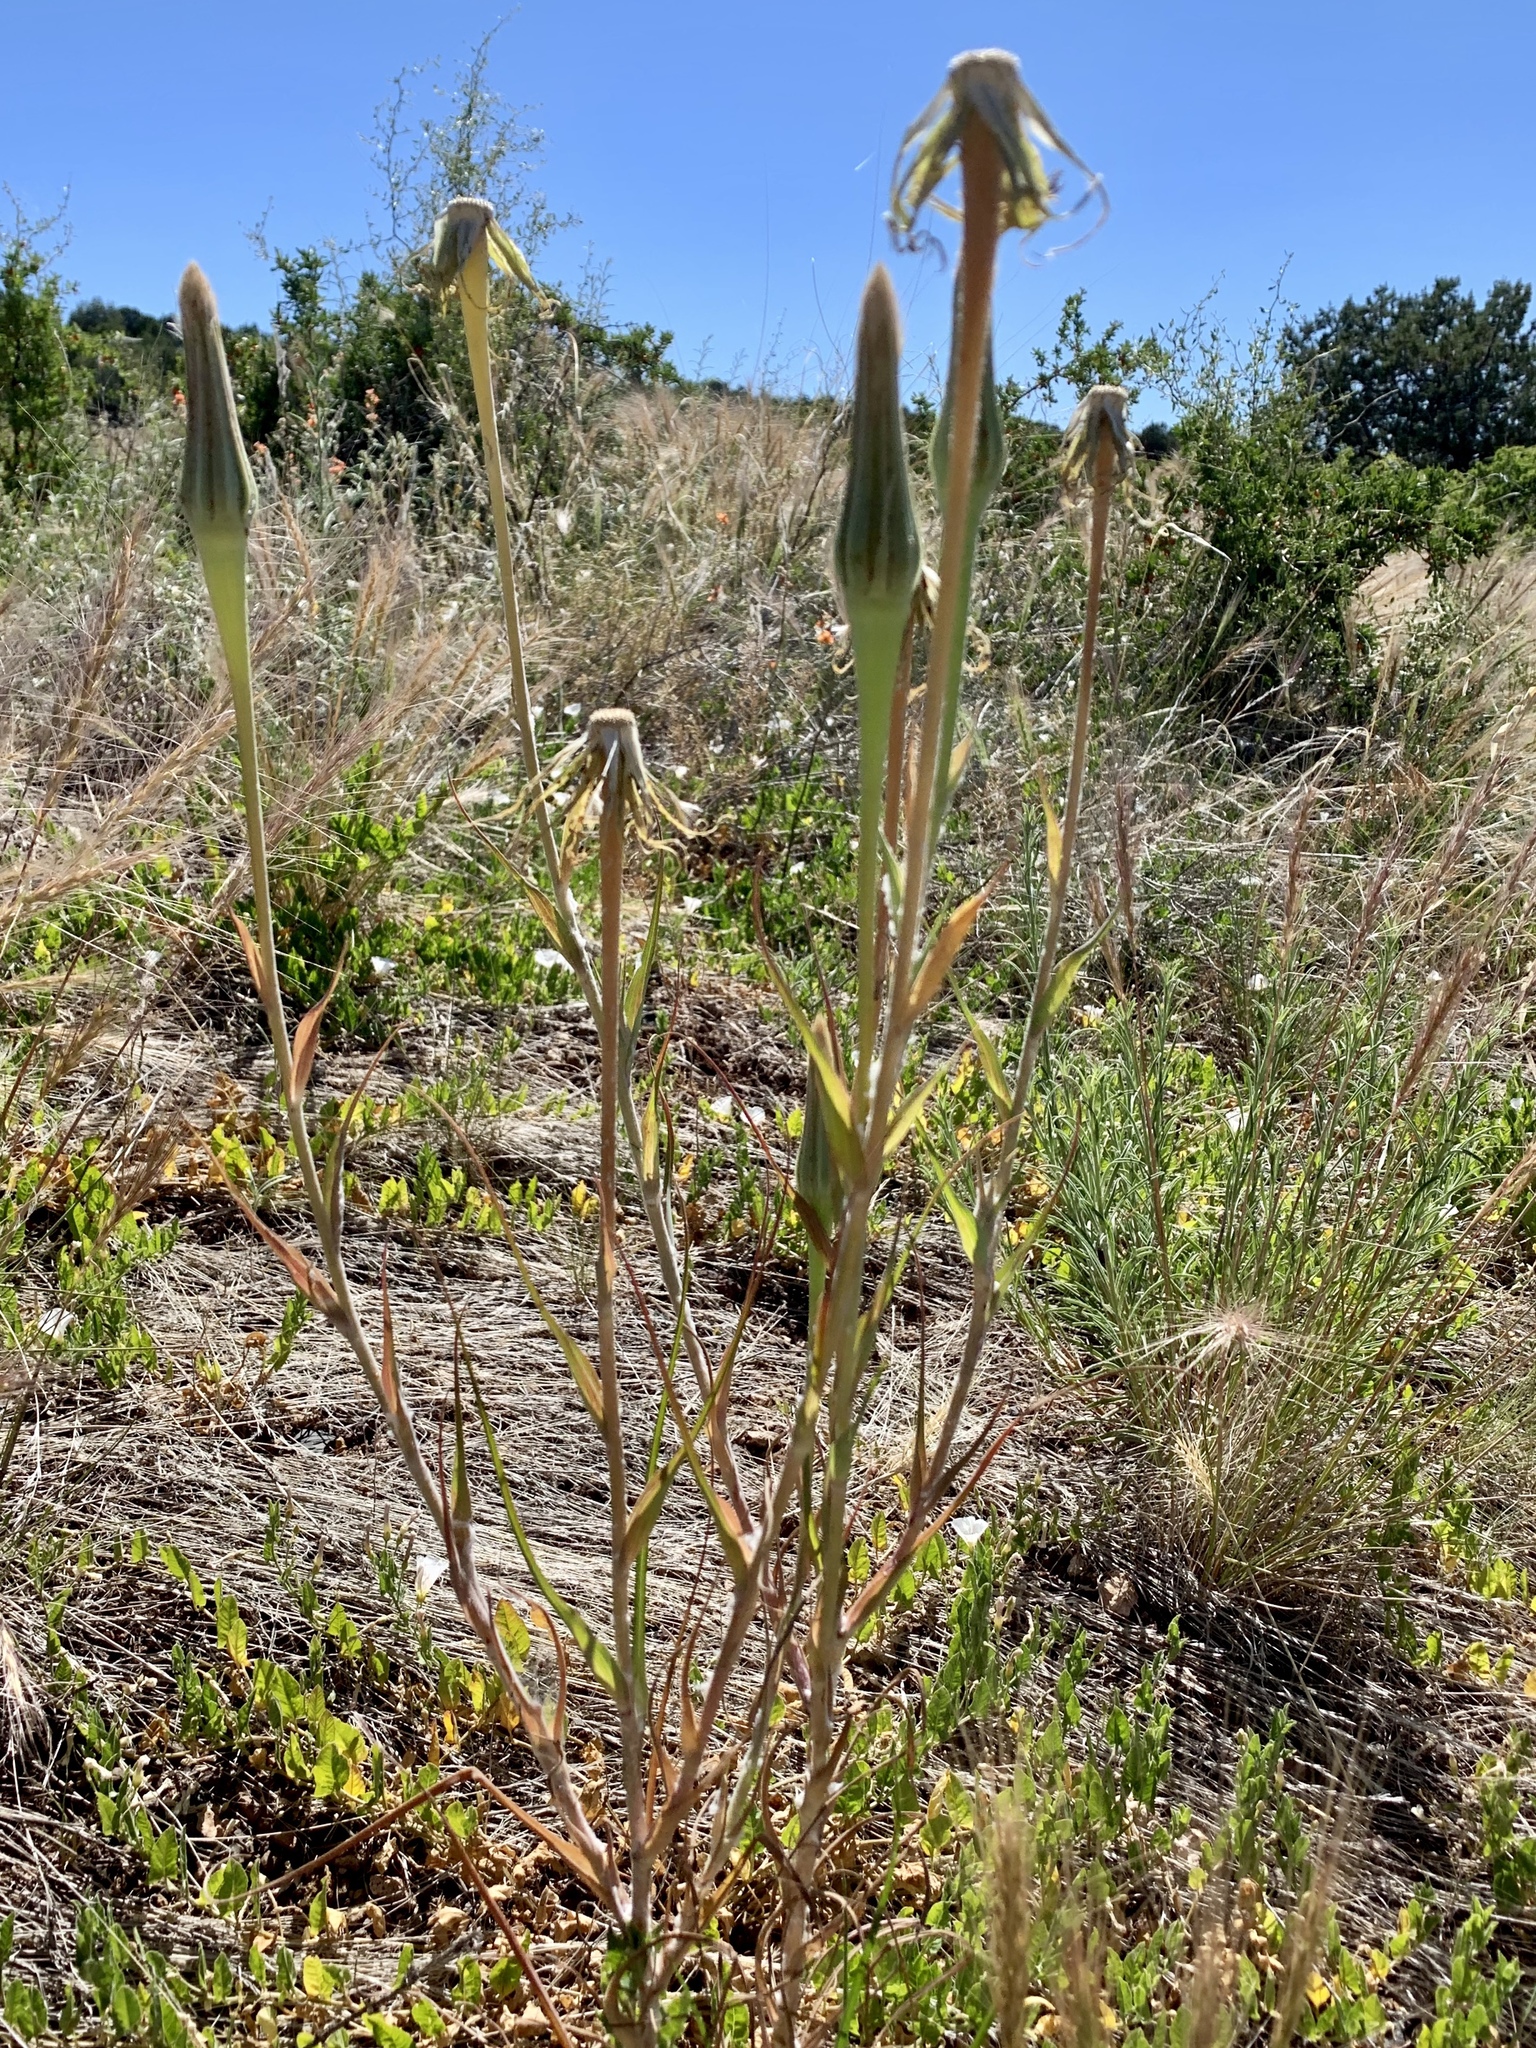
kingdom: Plantae
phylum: Tracheophyta
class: Magnoliopsida
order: Asterales
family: Asteraceae
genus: Tragopogon
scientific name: Tragopogon dubius
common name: Yellow salsify
